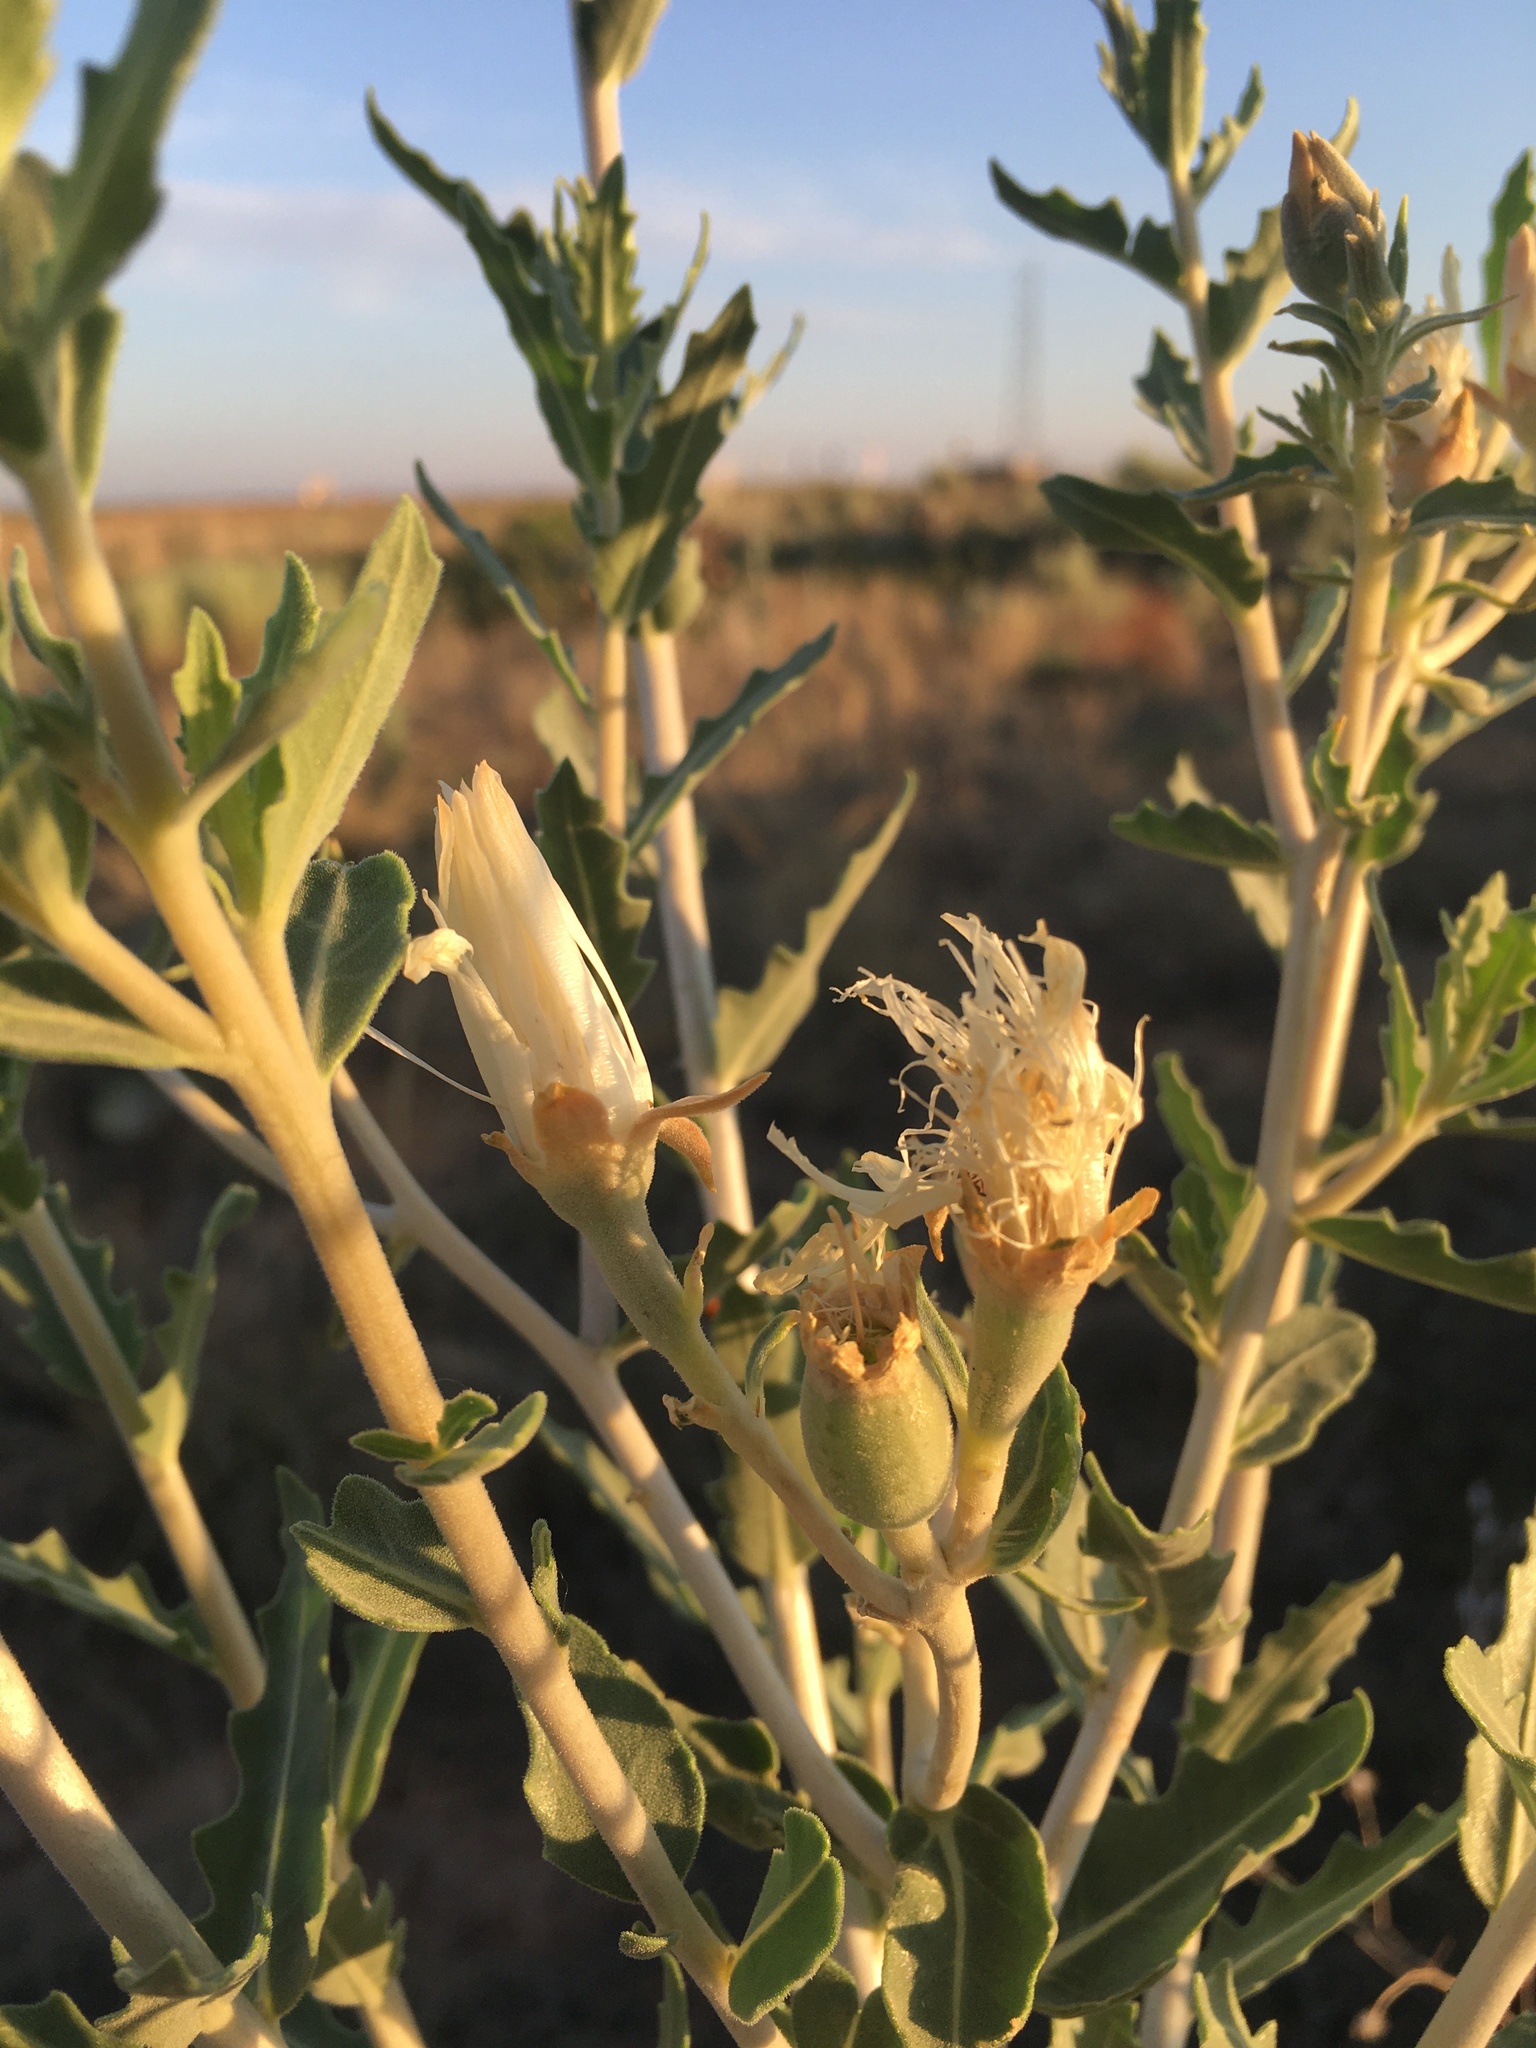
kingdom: Plantae
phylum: Tracheophyta
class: Magnoliopsida
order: Cornales
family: Loasaceae
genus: Mentzelia
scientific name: Mentzelia strictissima
